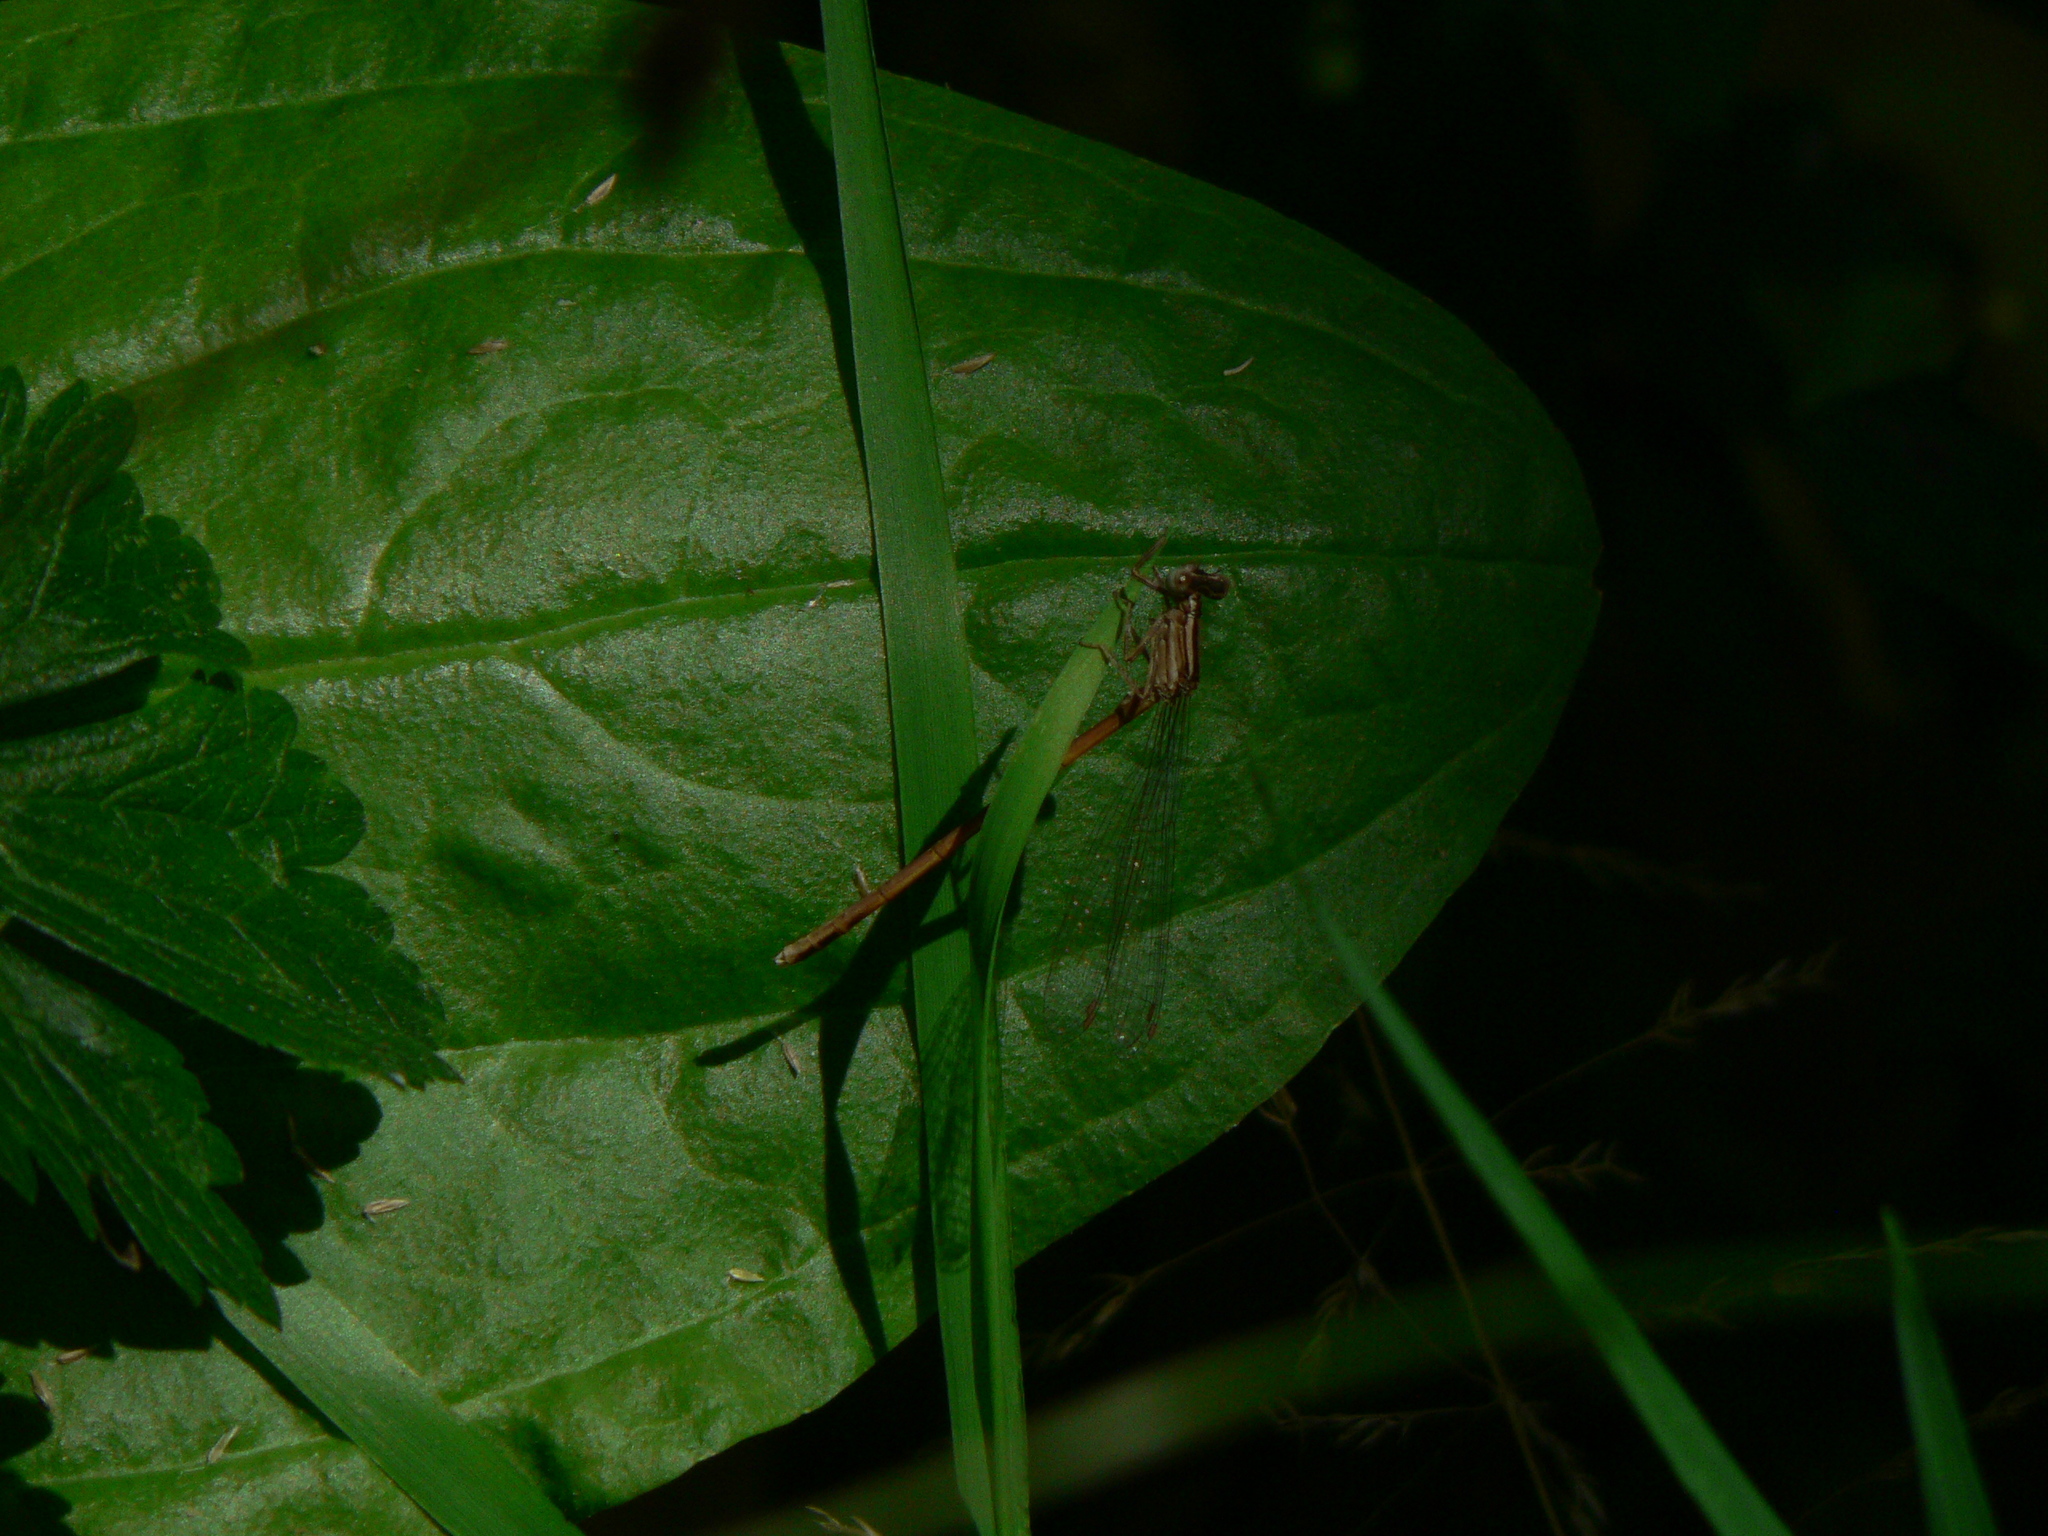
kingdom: Animalia
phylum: Arthropoda
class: Insecta
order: Odonata
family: Platycnemididae
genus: Platycnemis
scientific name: Platycnemis acutipennis
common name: Orange featherleg
